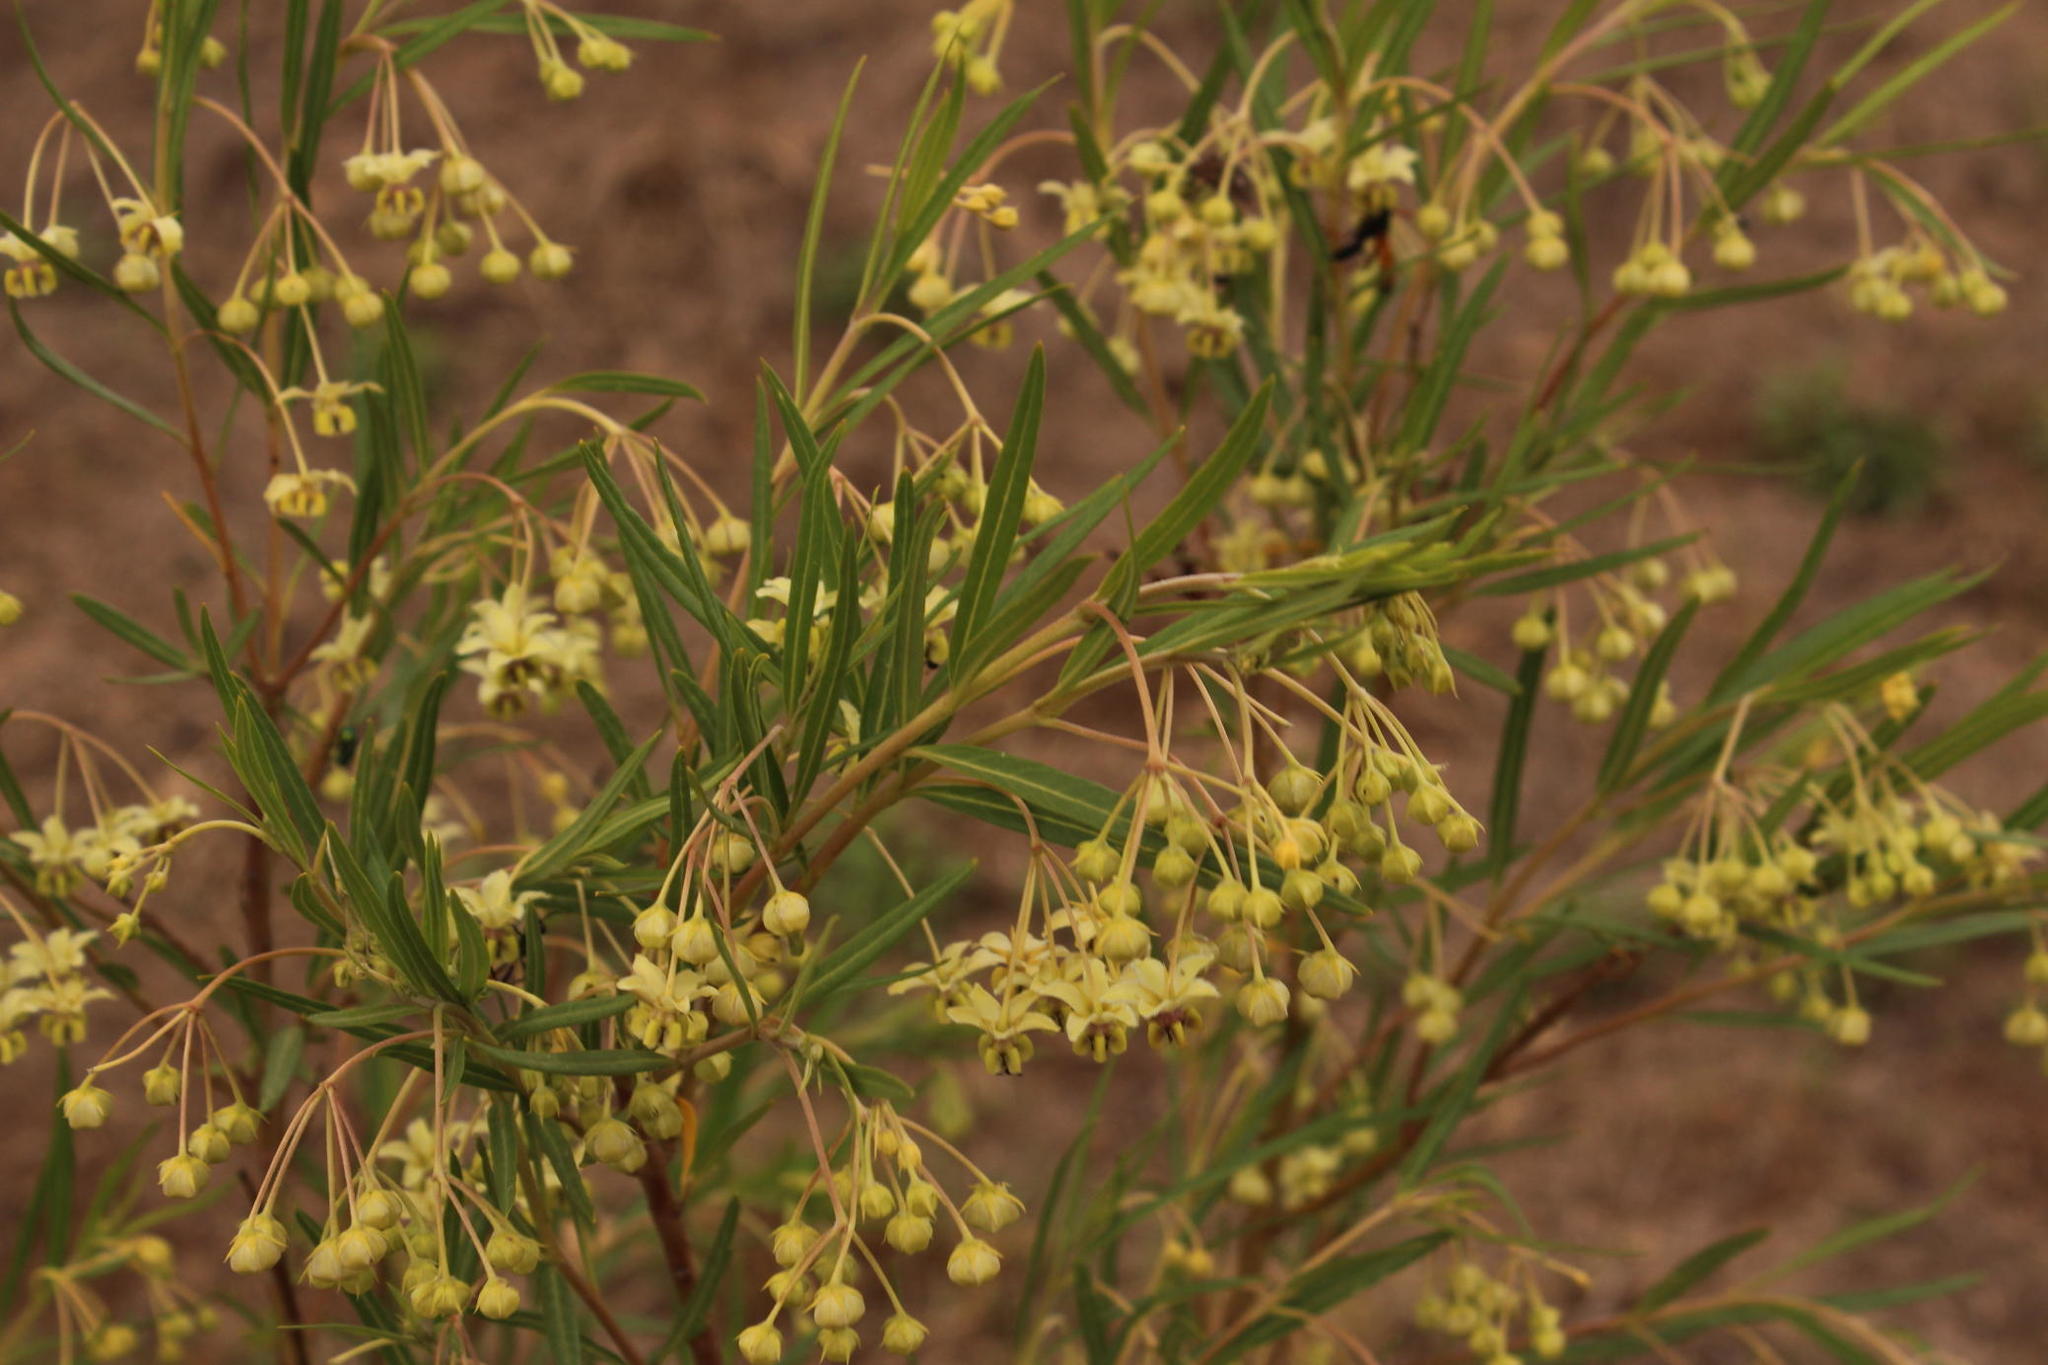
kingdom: Plantae
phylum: Tracheophyta
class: Magnoliopsida
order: Gentianales
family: Apocynaceae
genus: Gomphocarpus
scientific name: Gomphocarpus fruticosus
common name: Milkweed
